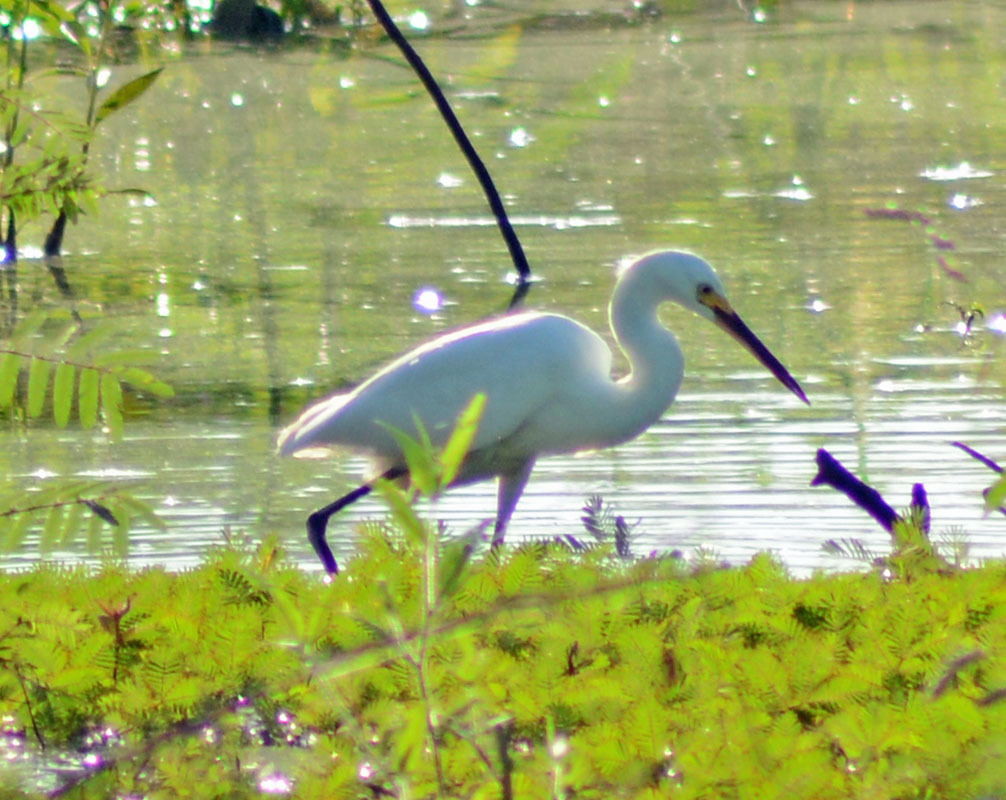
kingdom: Animalia
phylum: Chordata
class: Aves
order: Pelecaniformes
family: Ardeidae
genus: Egretta
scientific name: Egretta thula
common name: Snowy egret
